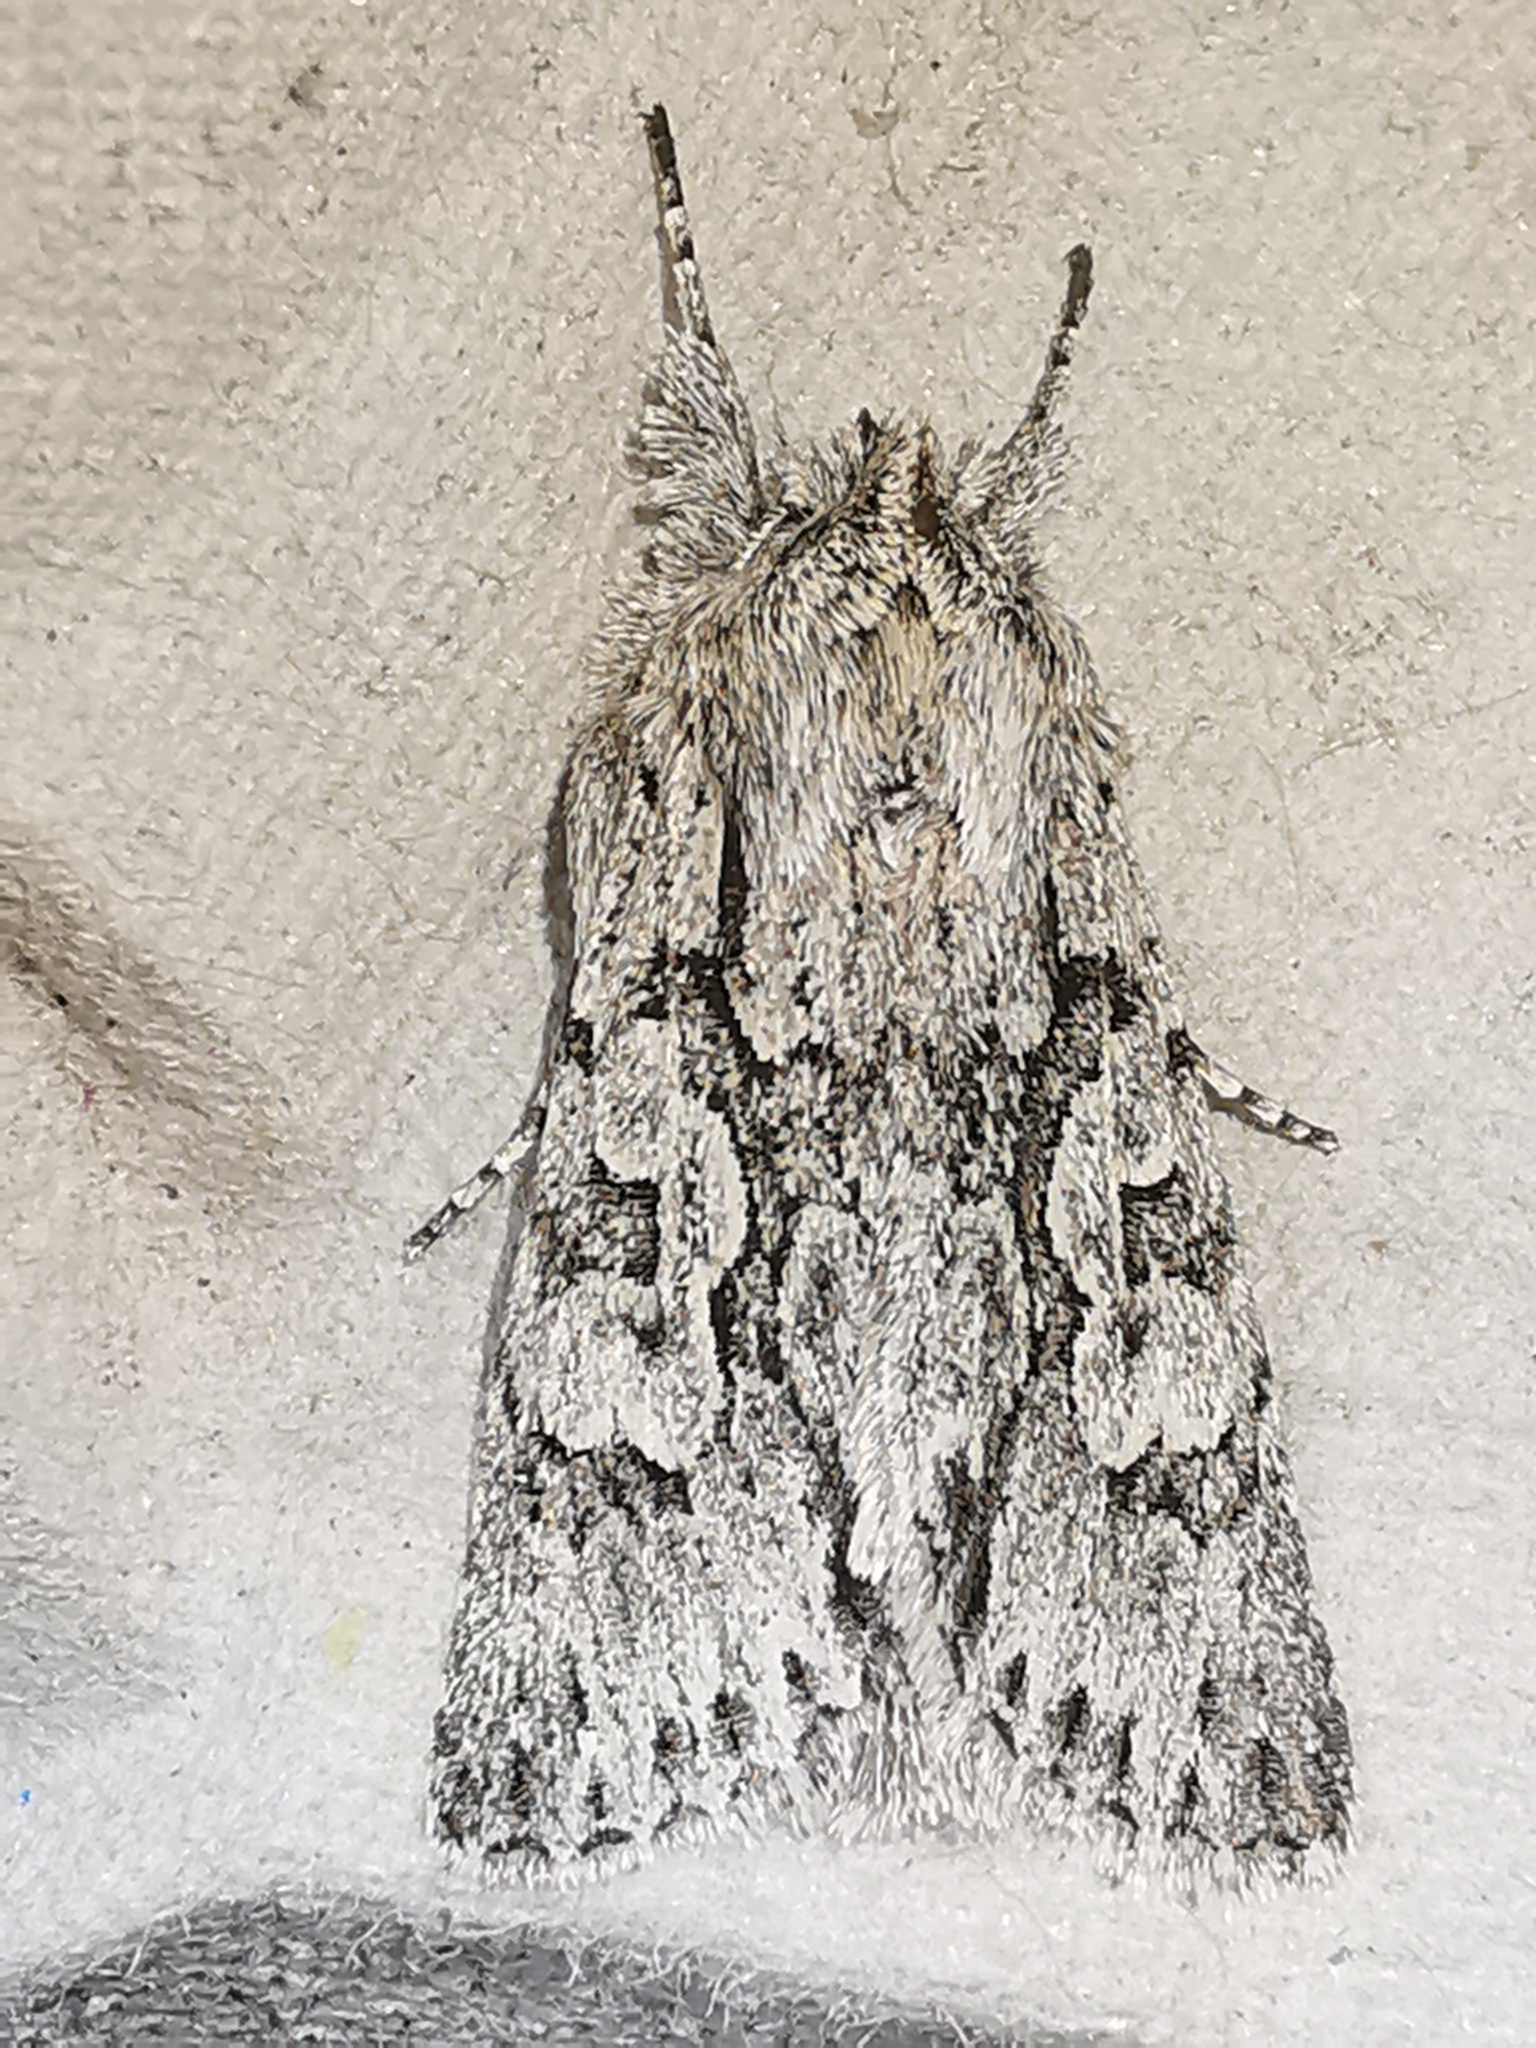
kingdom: Animalia
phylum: Arthropoda
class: Insecta
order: Lepidoptera
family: Noctuidae
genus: Xylocampa
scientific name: Xylocampa areola
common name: Early grey
